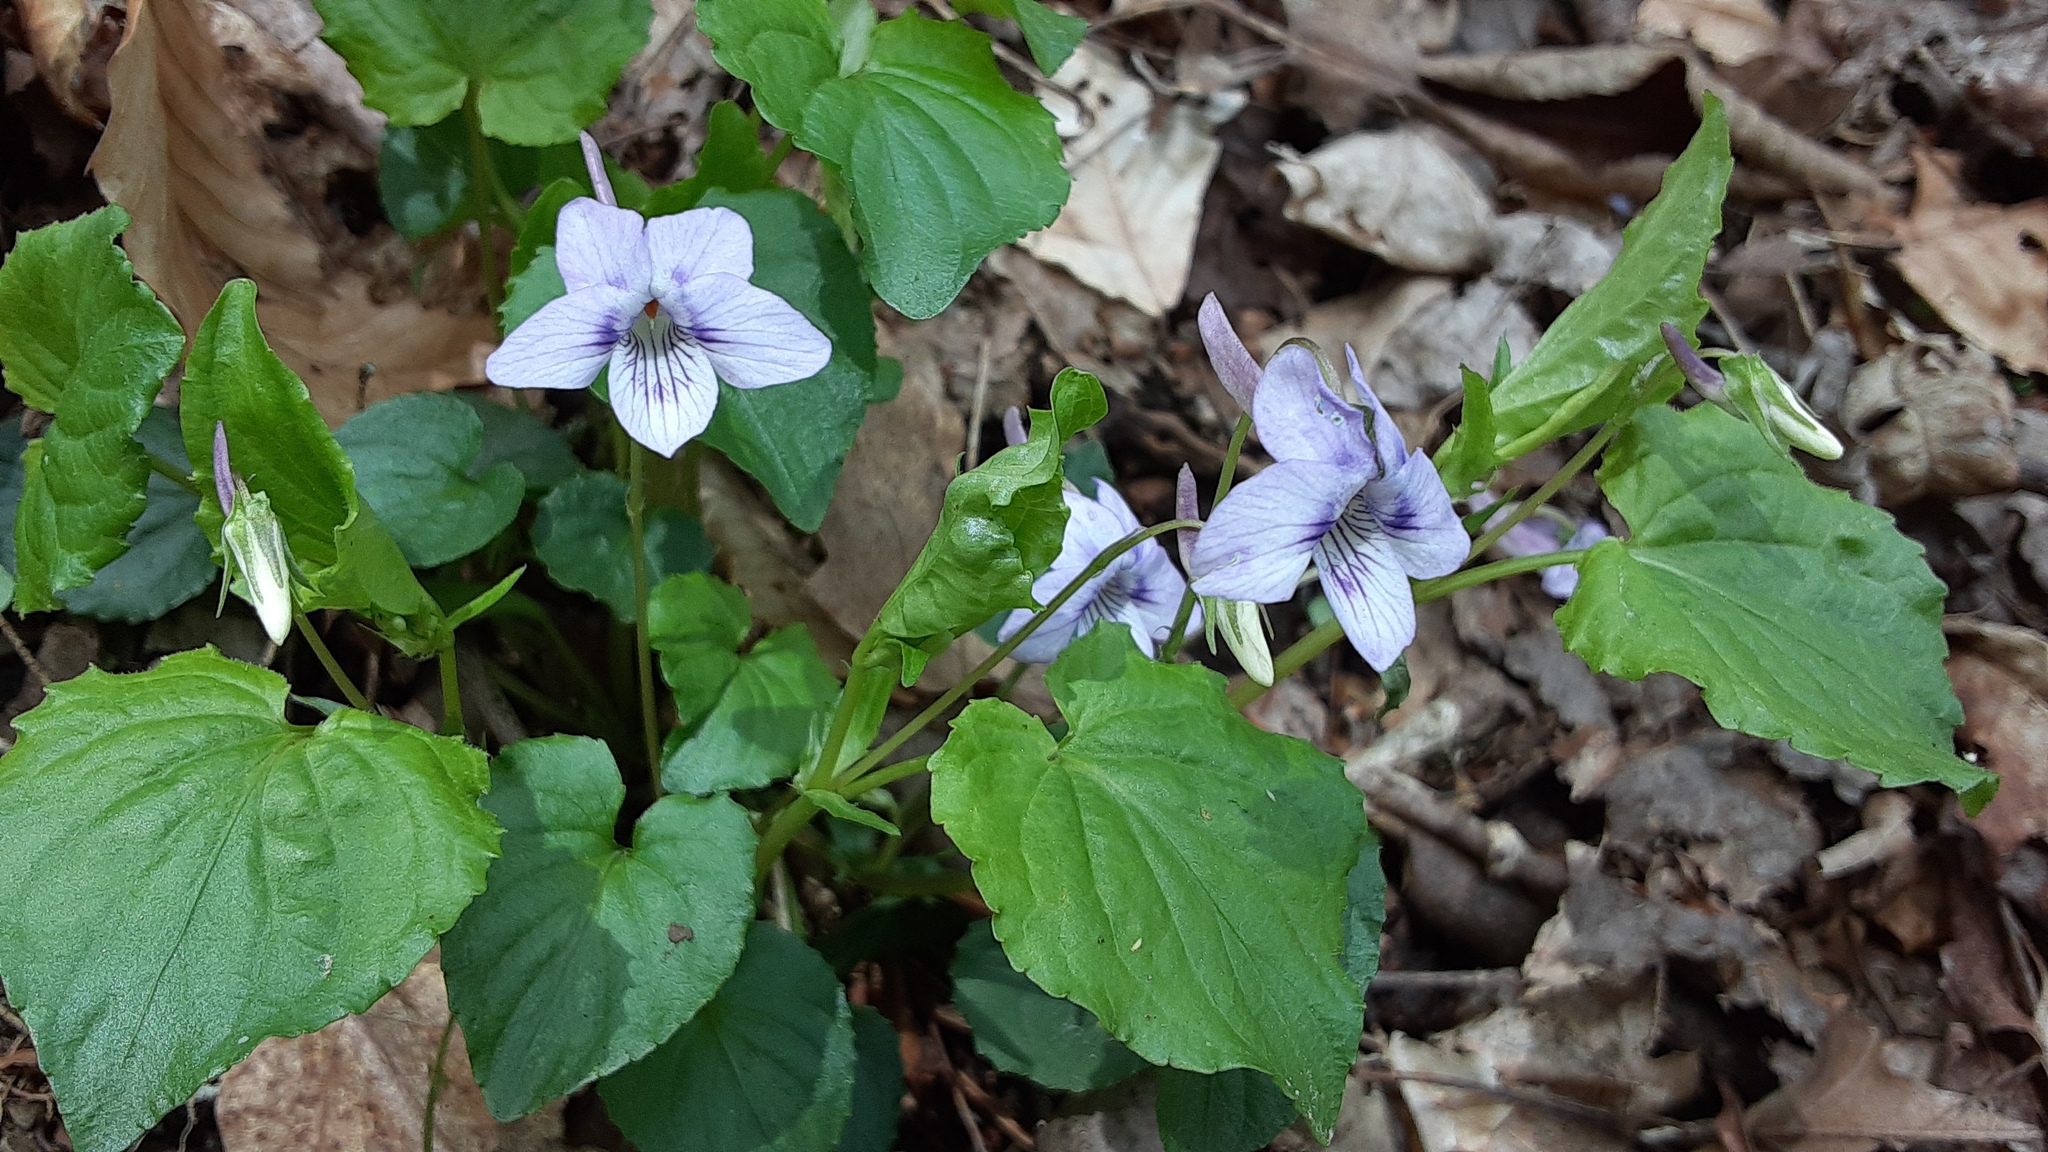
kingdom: Plantae
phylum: Tracheophyta
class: Magnoliopsida
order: Malpighiales
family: Violaceae
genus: Viola
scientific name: Viola rostrata
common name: Long-spur violet
